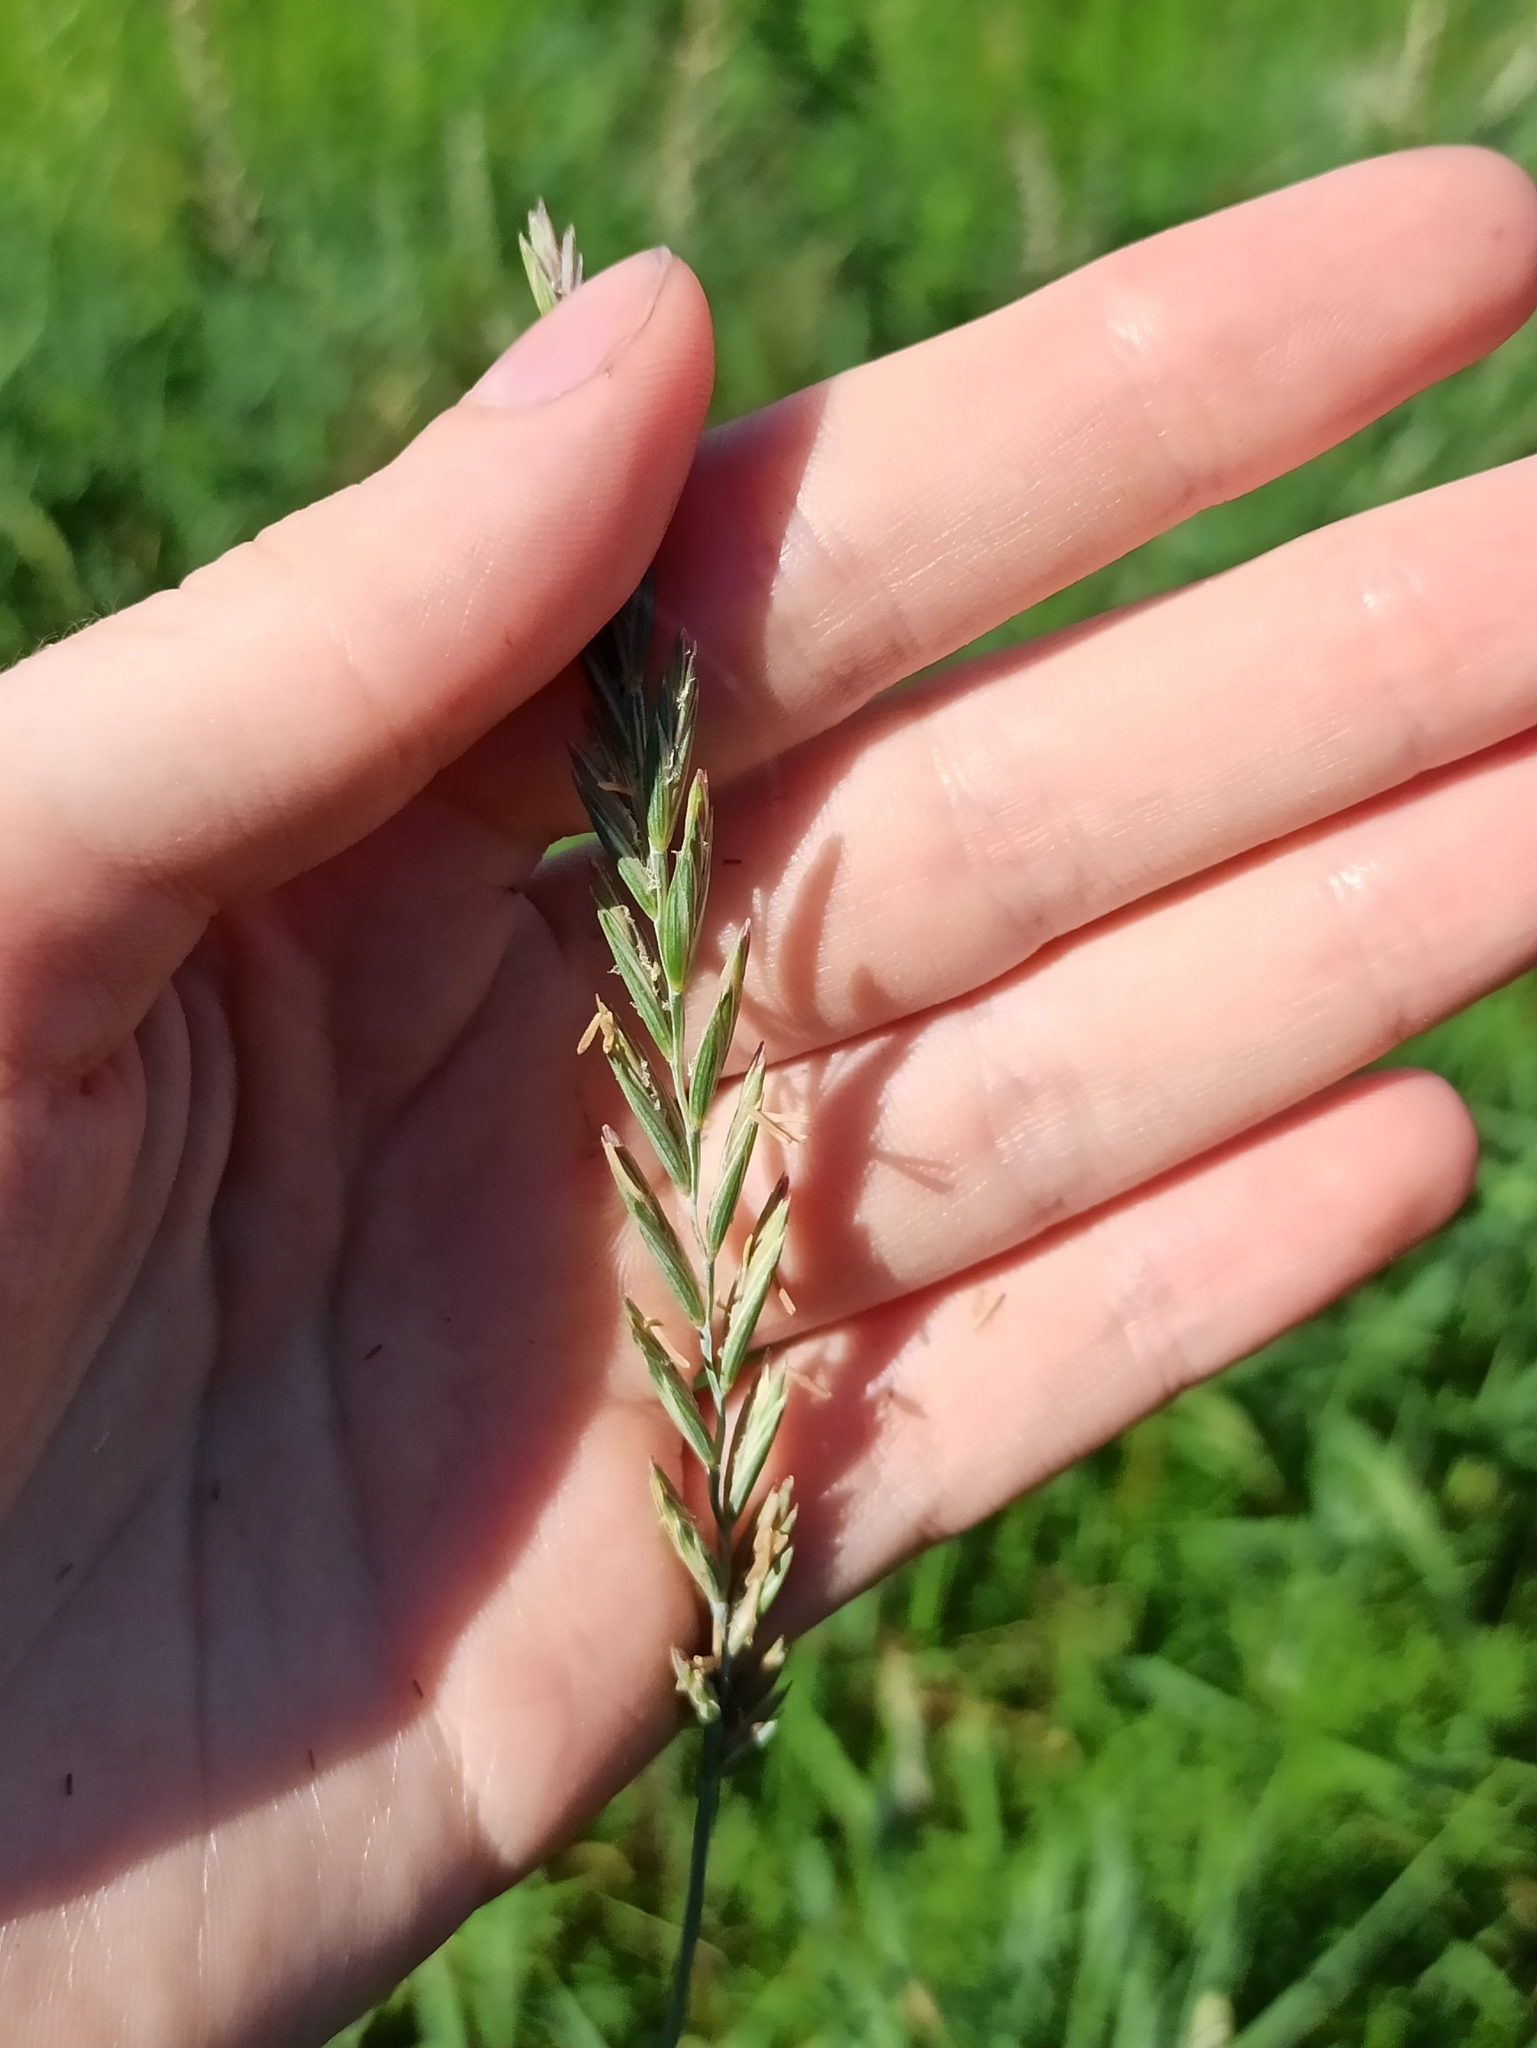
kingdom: Plantae
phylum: Tracheophyta
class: Liliopsida
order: Poales
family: Poaceae
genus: Elymus
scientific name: Elymus repens
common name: Quackgrass
